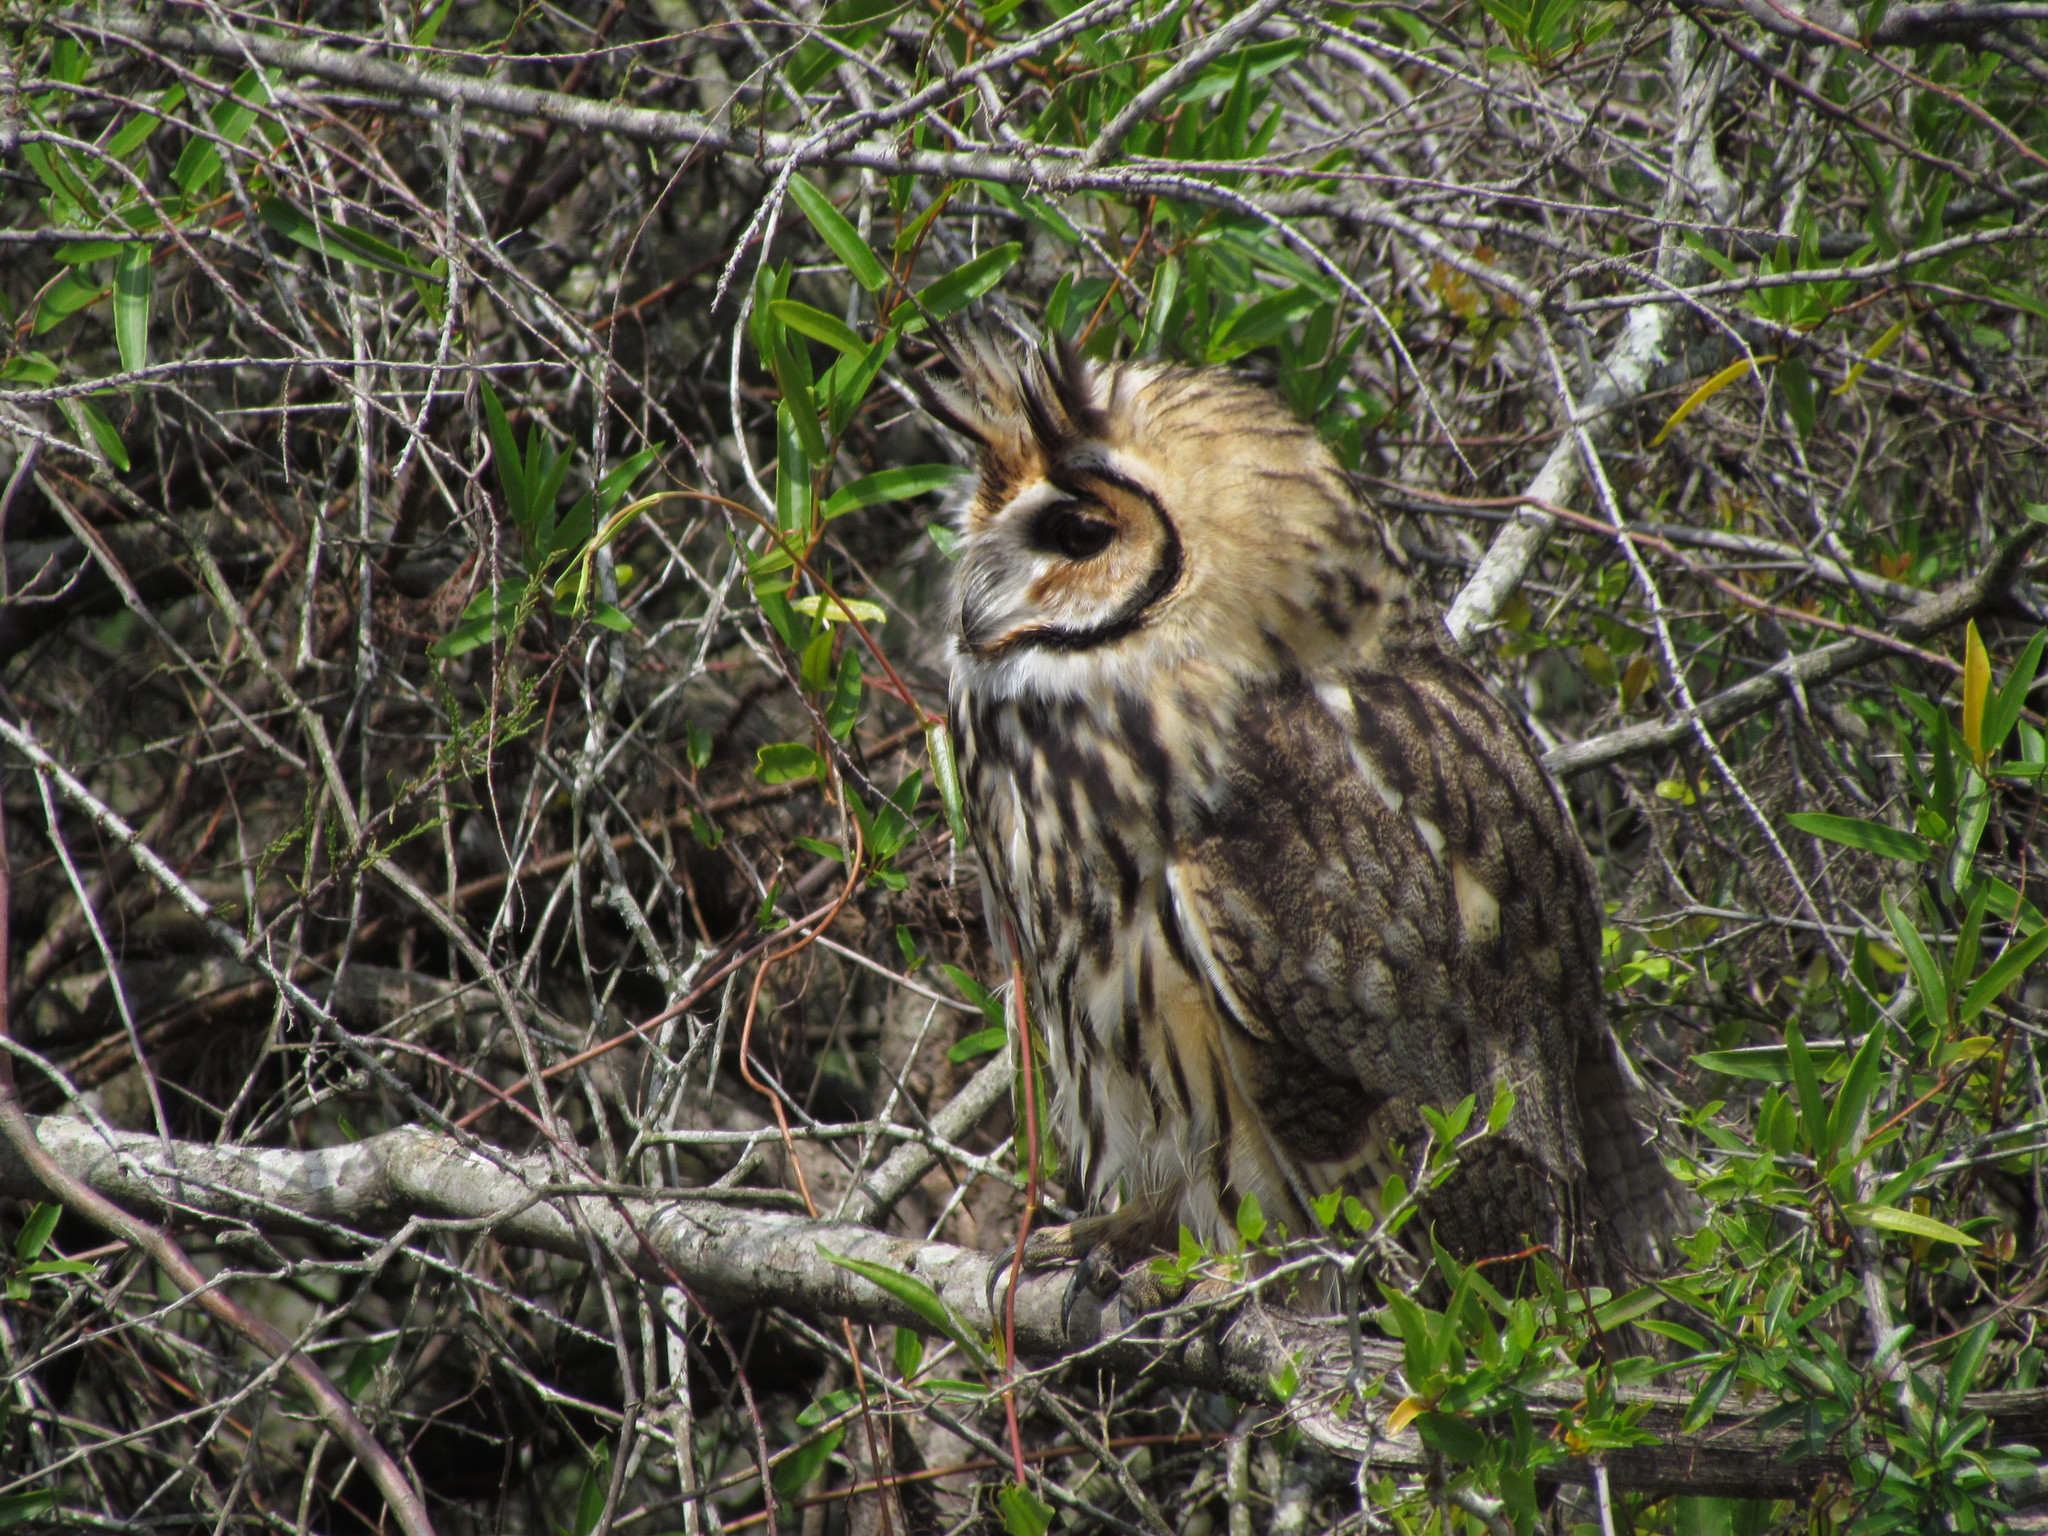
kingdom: Animalia
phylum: Chordata
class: Aves
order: Strigiformes
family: Strigidae
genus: Pseudoscops
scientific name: Pseudoscops clamator
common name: Striped owl
